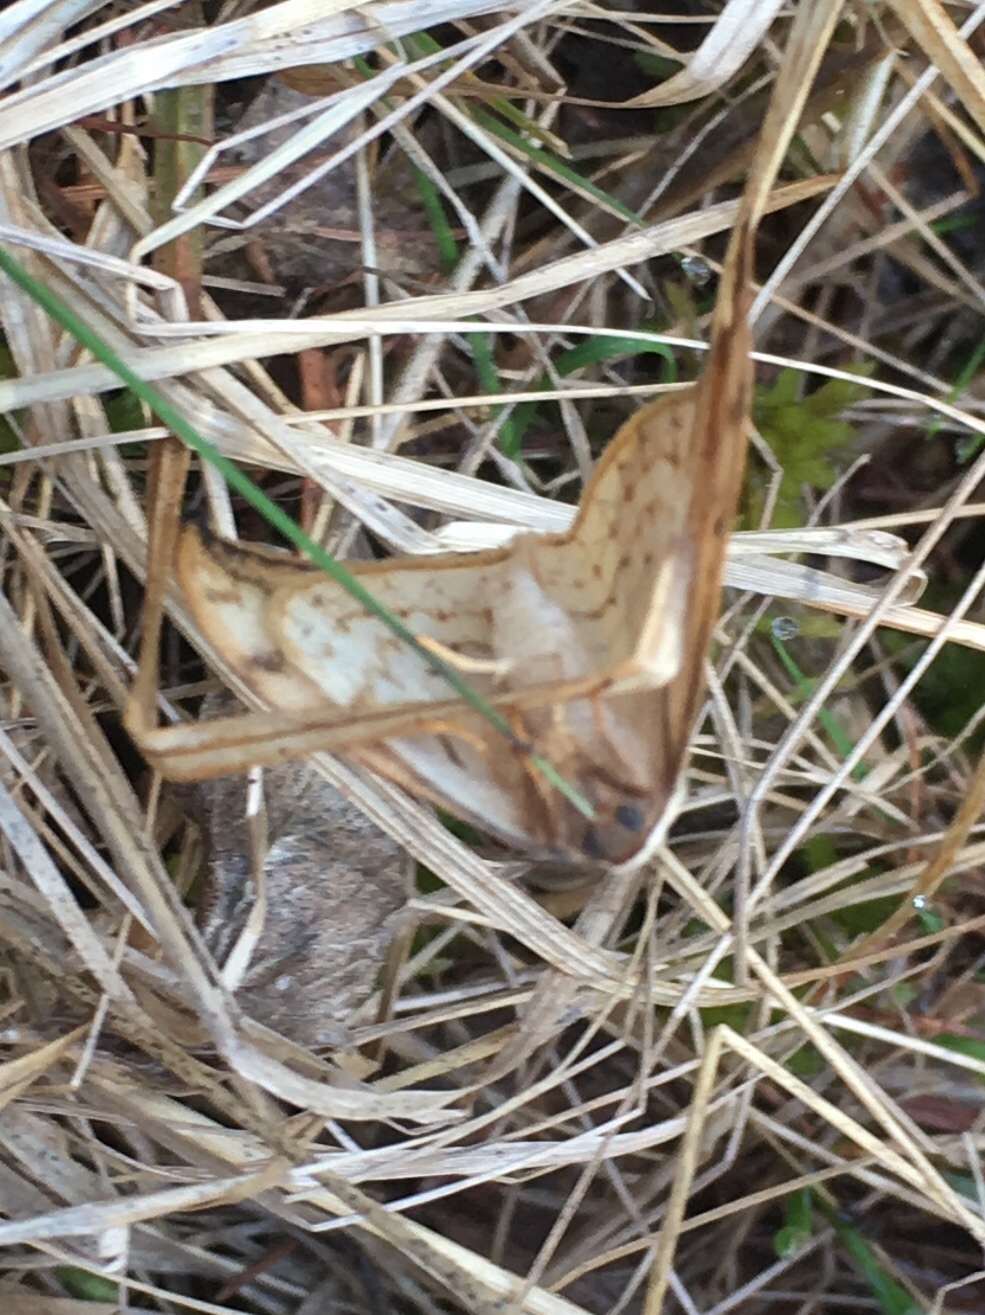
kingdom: Animalia
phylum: Arthropoda
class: Insecta
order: Lepidoptera
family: Drepanidae
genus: Drepana
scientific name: Drepana arcuata
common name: Arched hooktip moth
